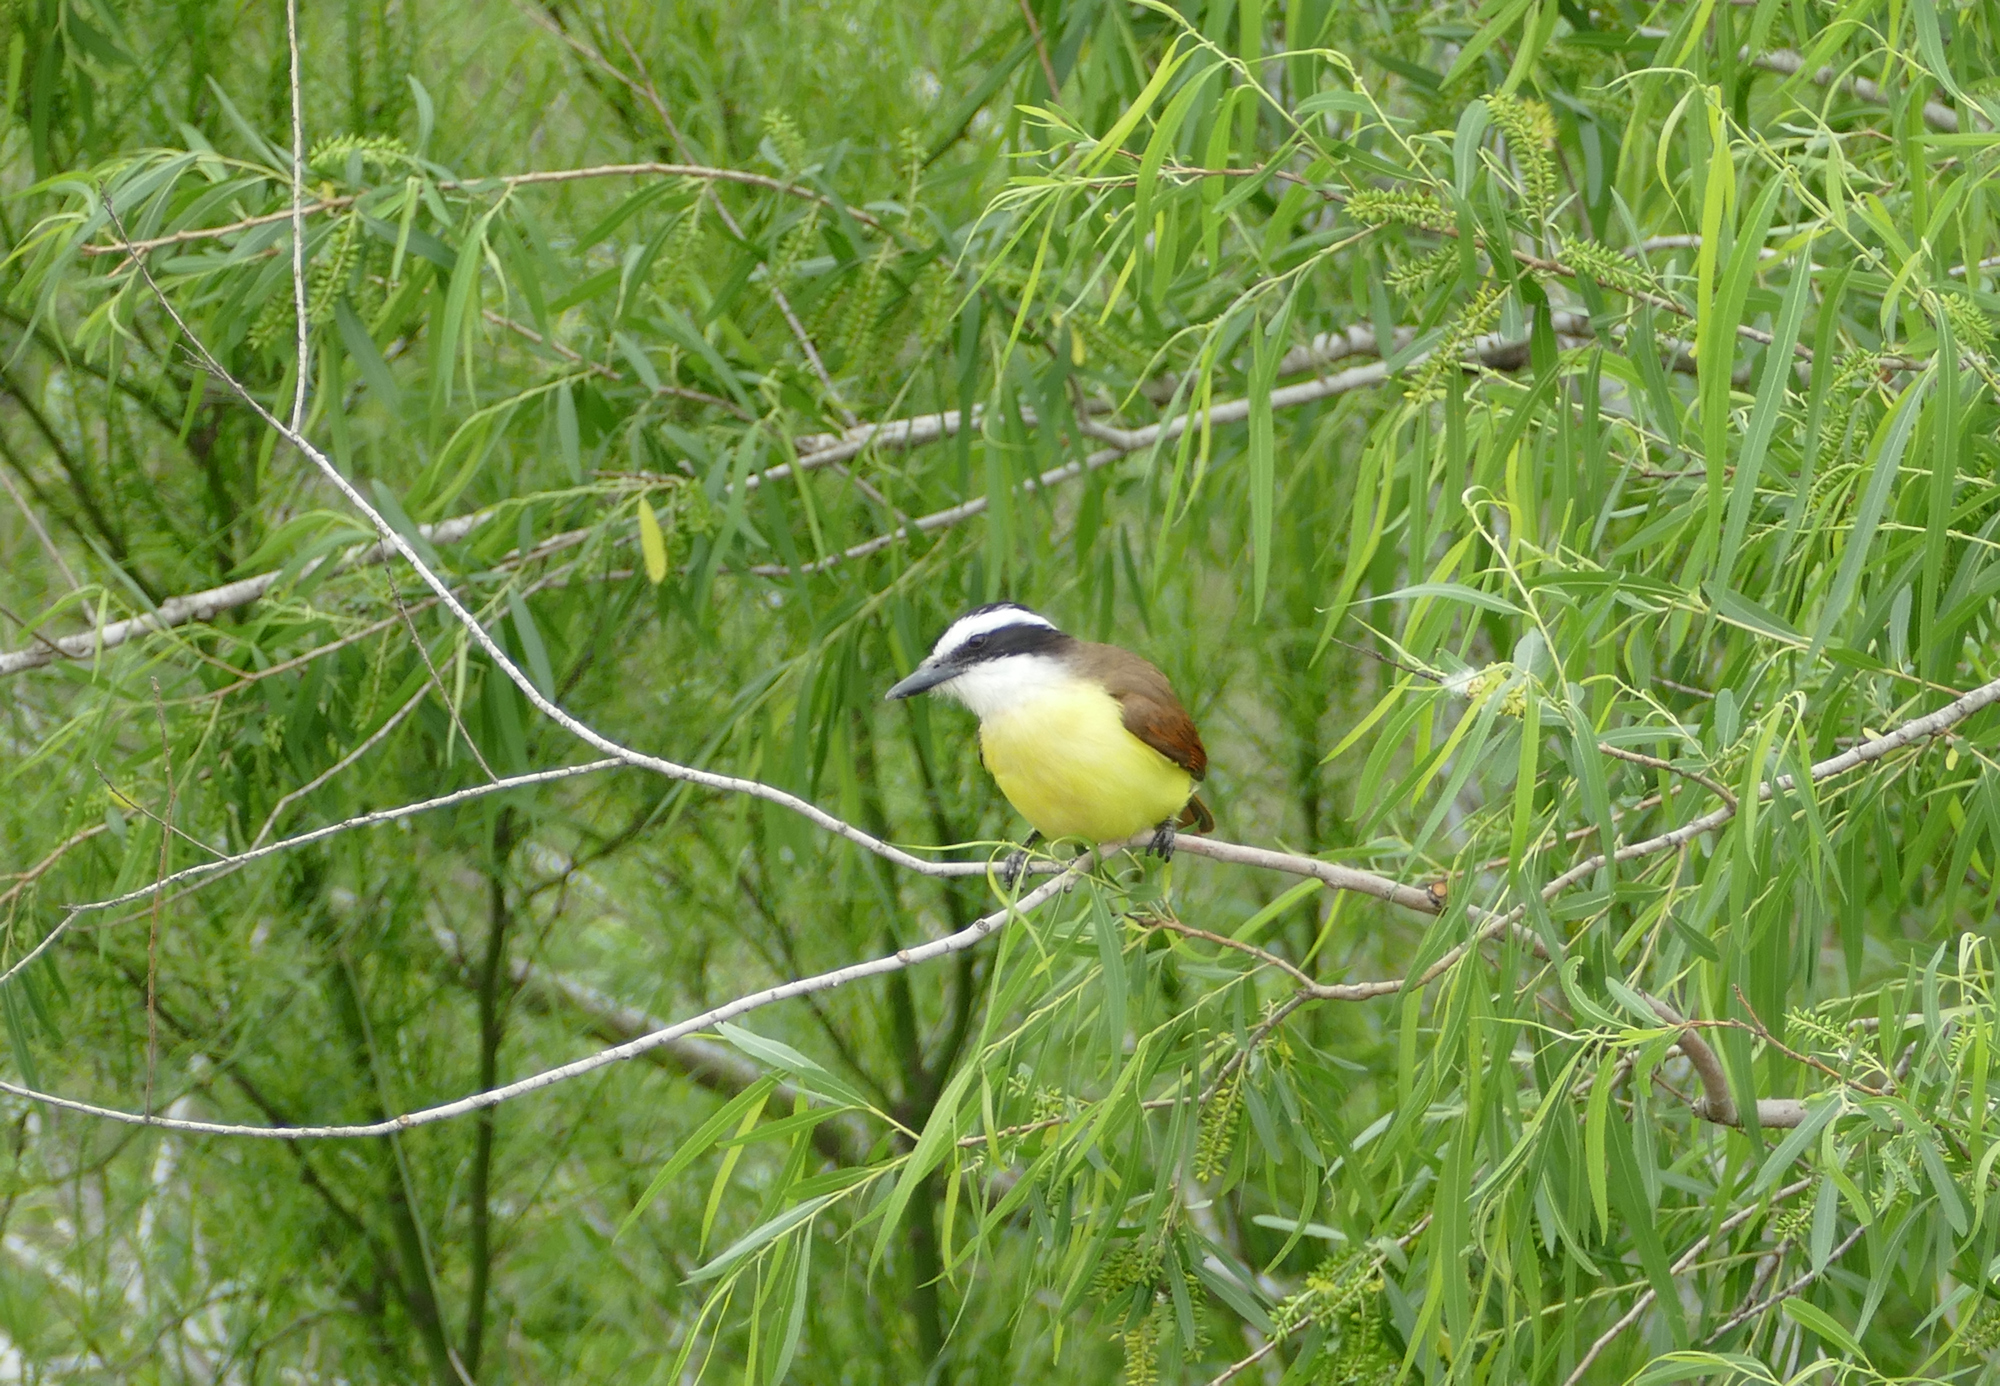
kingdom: Animalia
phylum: Chordata
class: Aves
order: Passeriformes
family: Tyrannidae
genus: Pitangus
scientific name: Pitangus sulphuratus
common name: Great kiskadee
